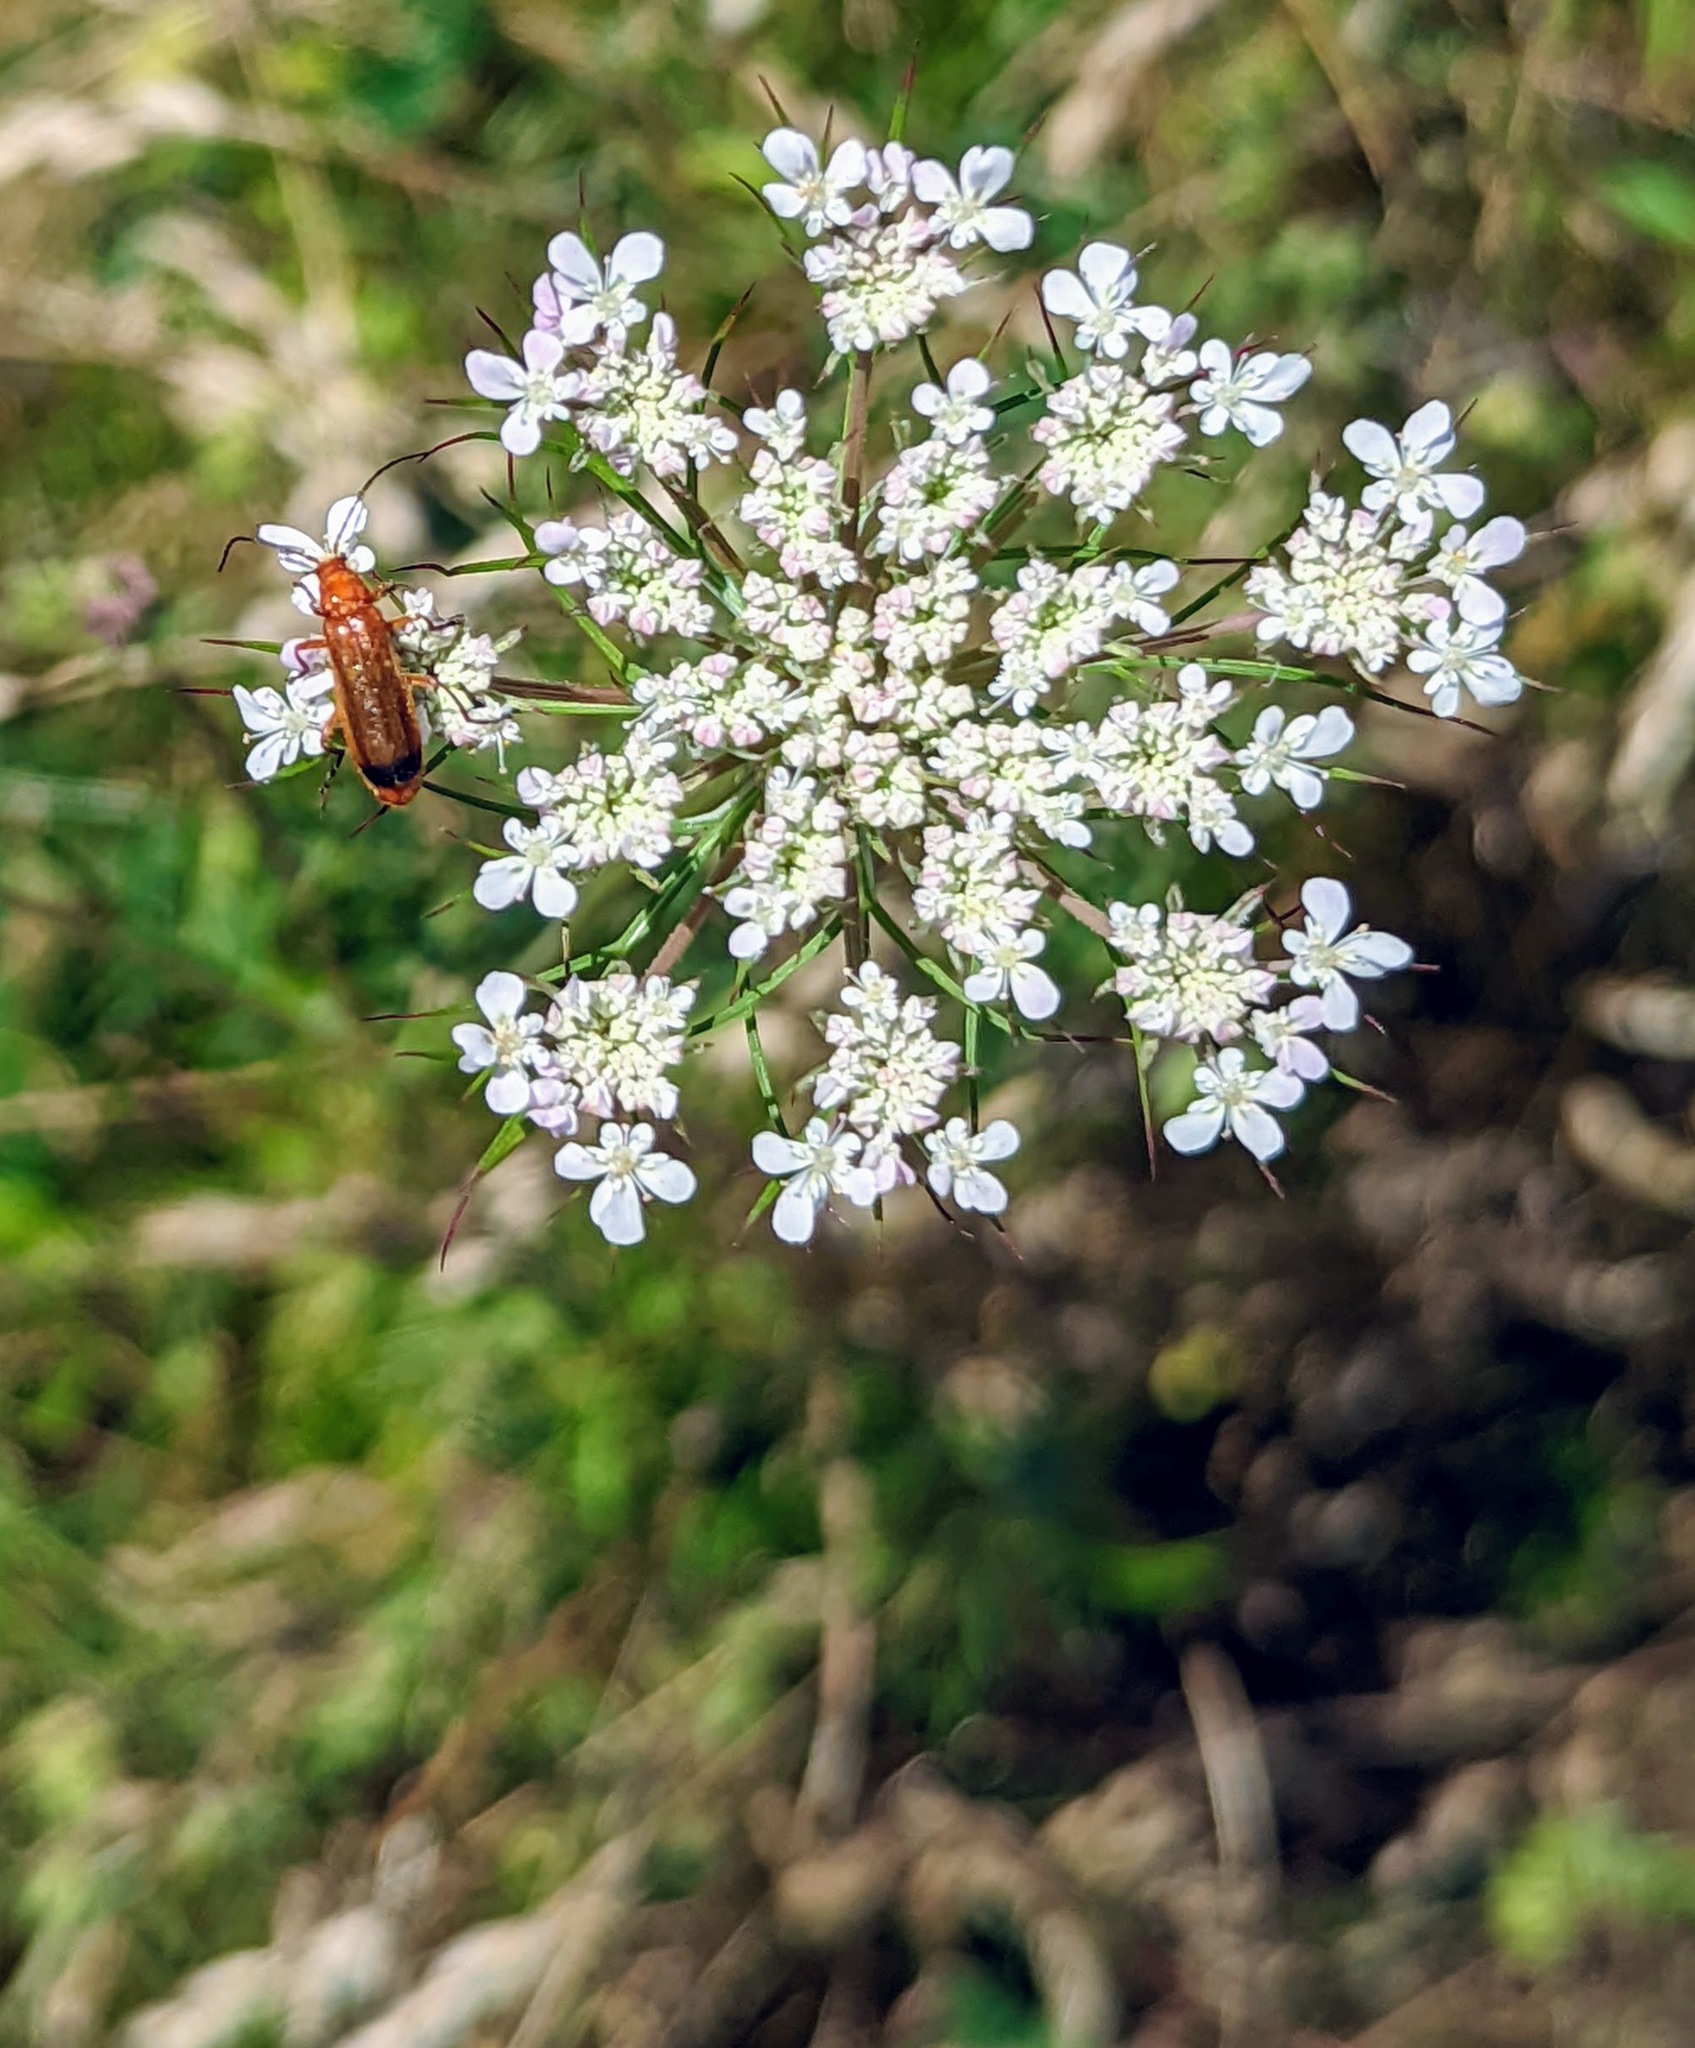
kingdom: Plantae
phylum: Tracheophyta
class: Magnoliopsida
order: Apiales
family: Apiaceae
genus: Daucus
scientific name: Daucus carota
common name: Wild carrot
